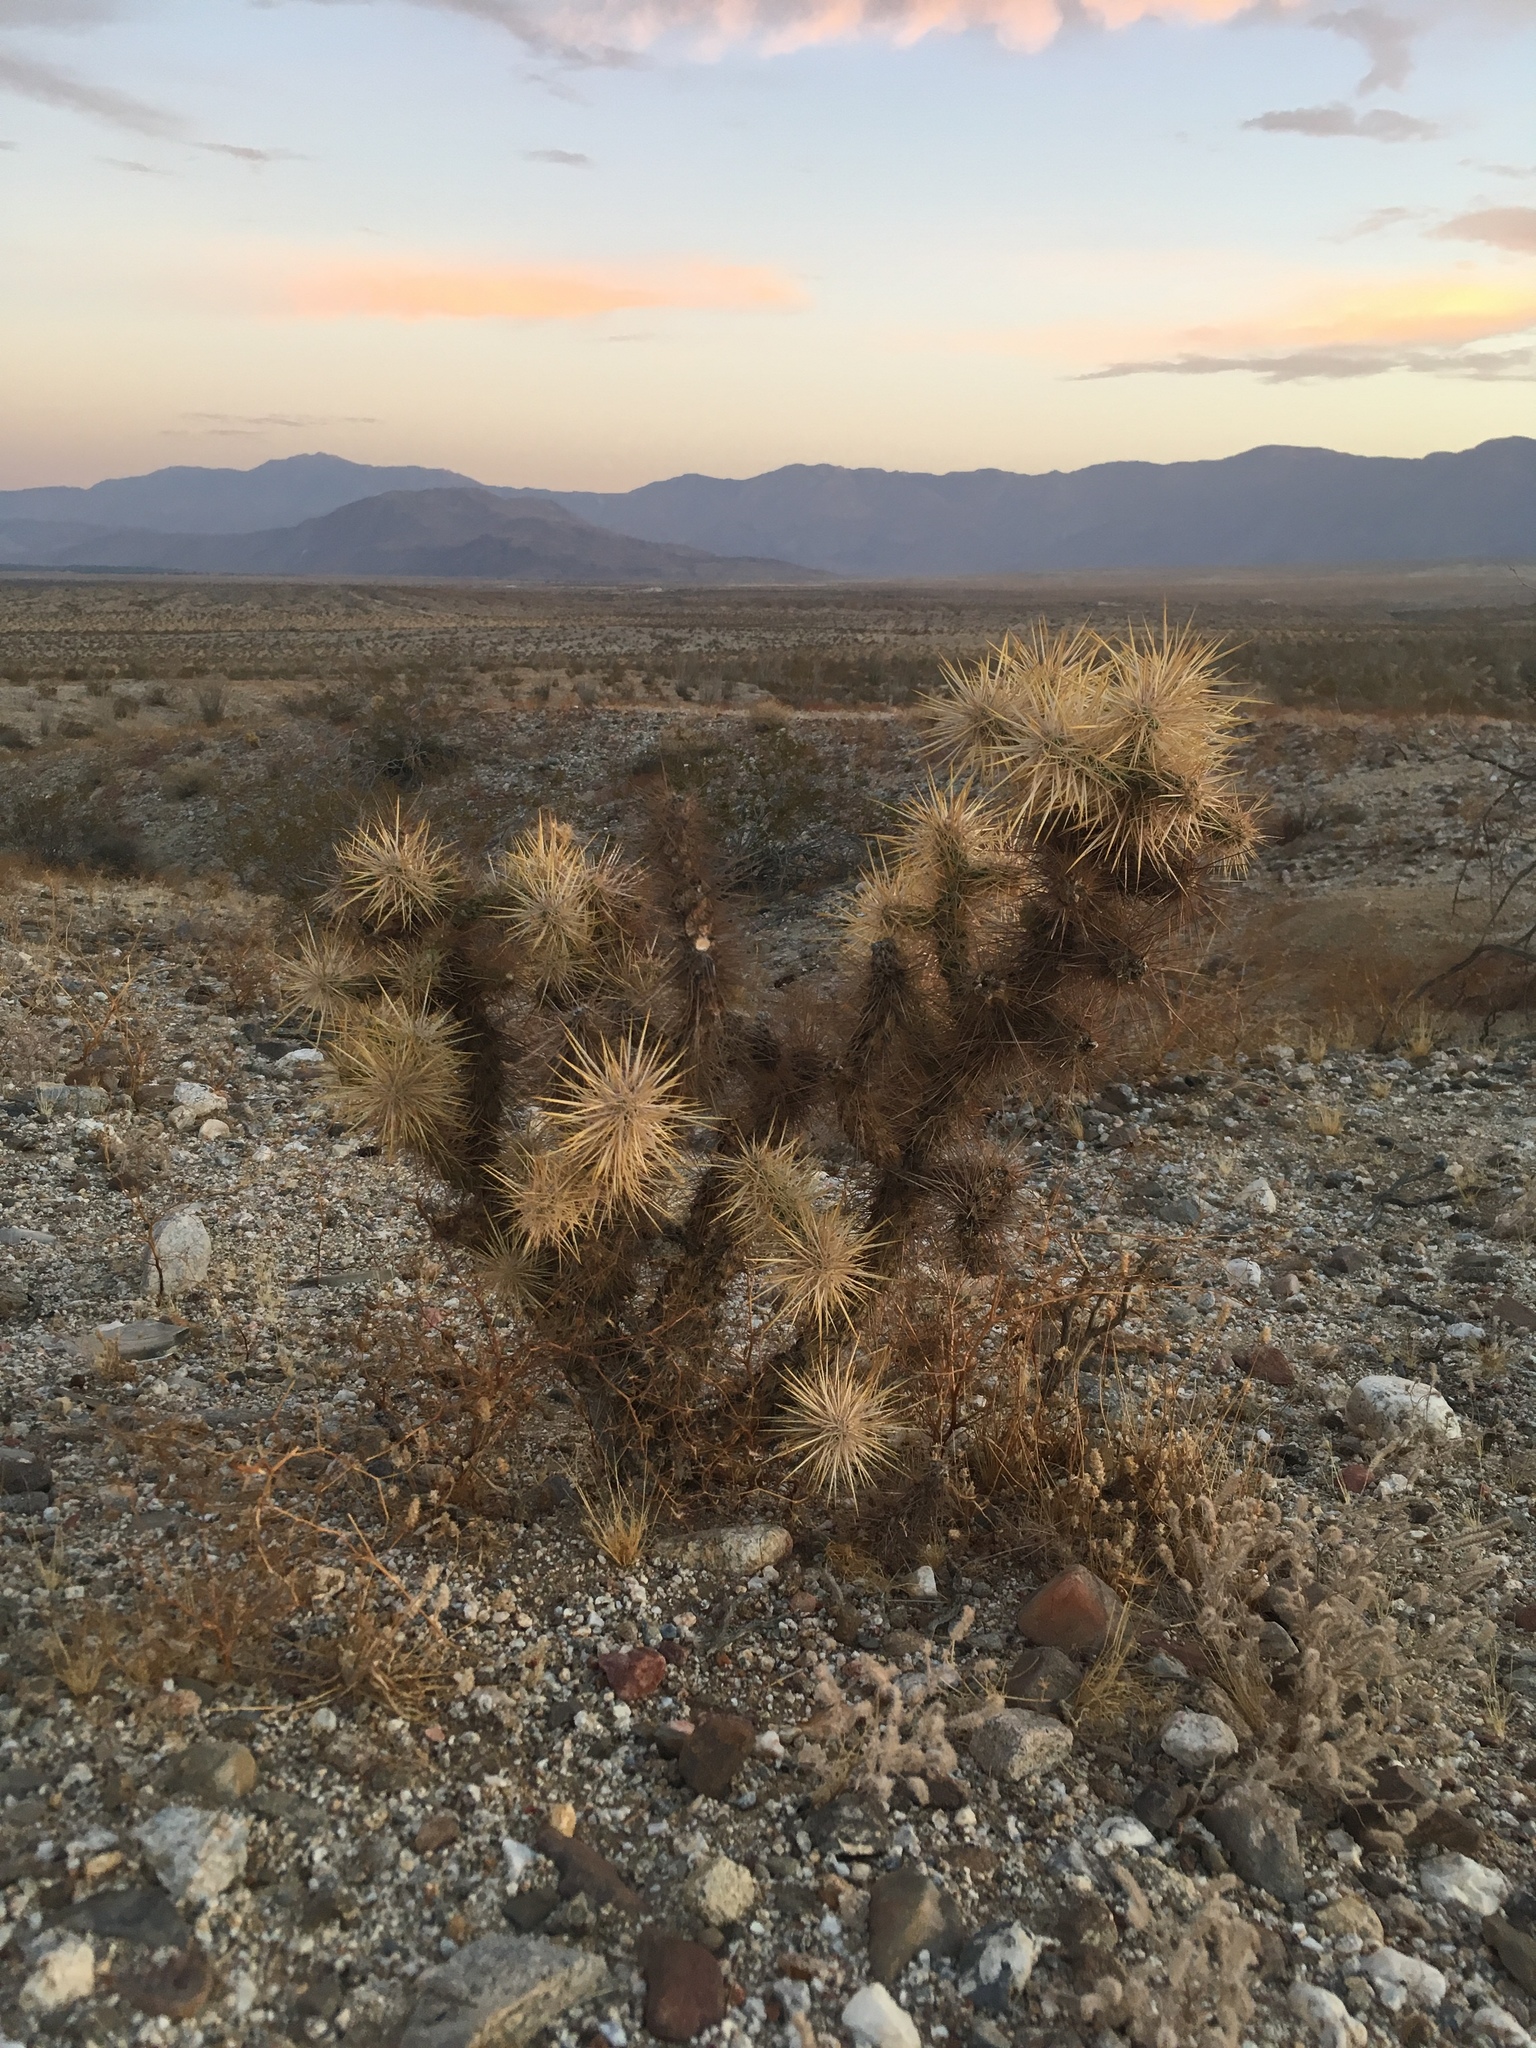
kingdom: Plantae
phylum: Tracheophyta
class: Magnoliopsida
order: Caryophyllales
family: Cactaceae
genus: Cylindropuntia
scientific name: Cylindropuntia echinocarpa
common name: Ground cholla
